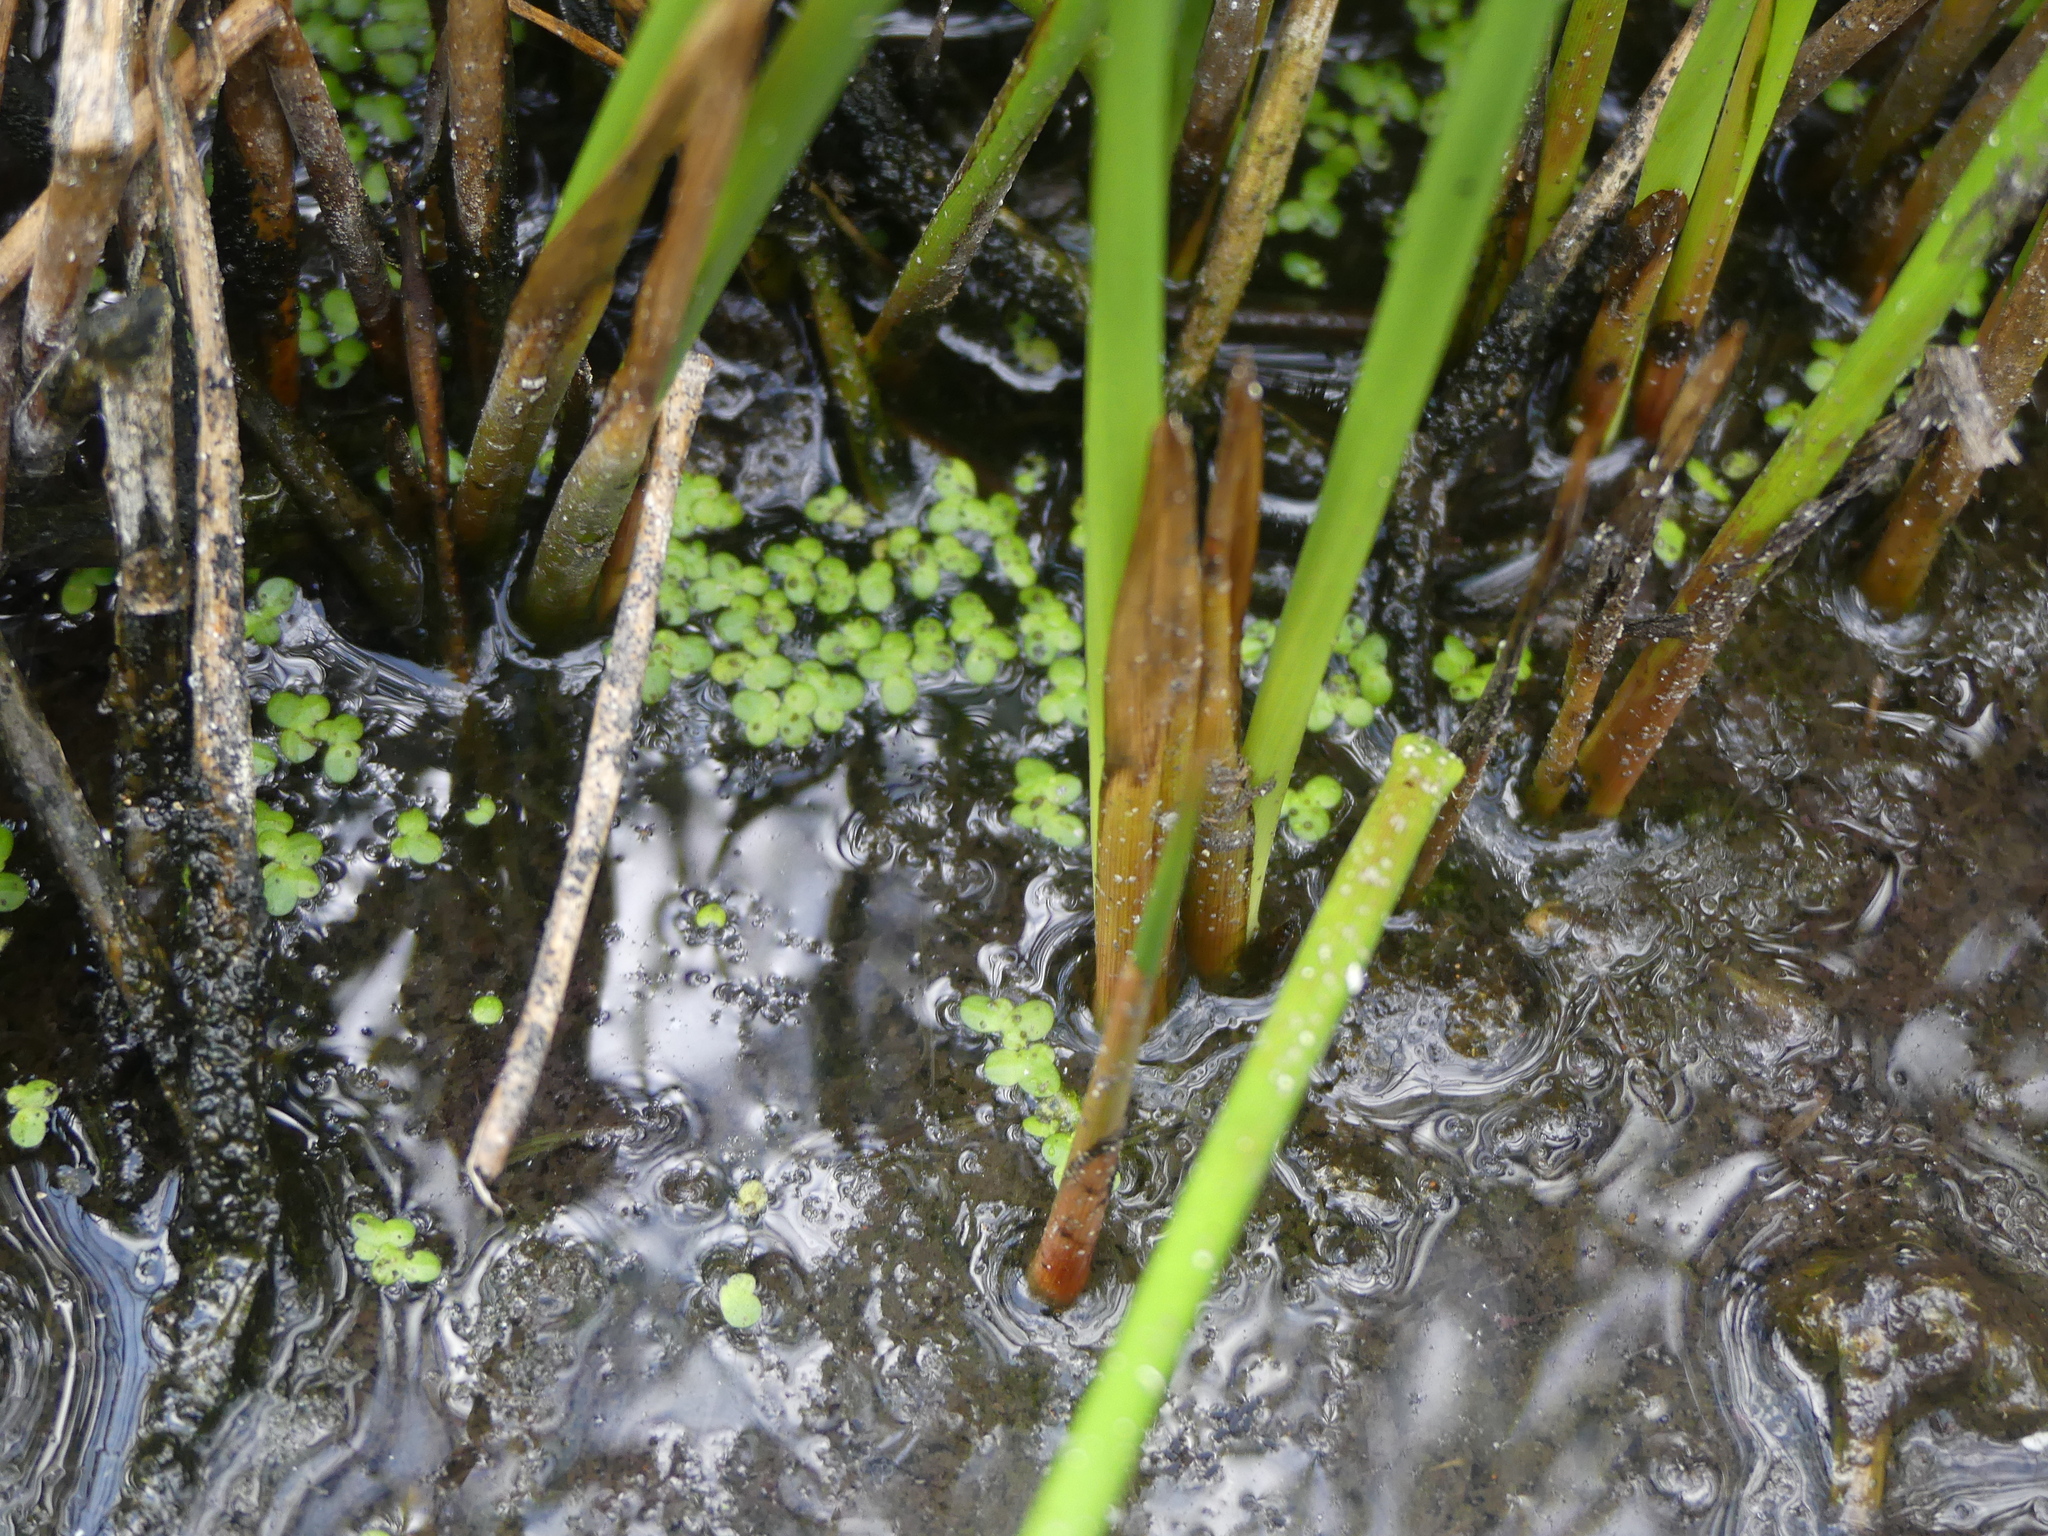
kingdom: Plantae
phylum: Tracheophyta
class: Liliopsida
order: Alismatales
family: Araceae
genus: Lemna
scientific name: Lemna minor
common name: Common duckweed
